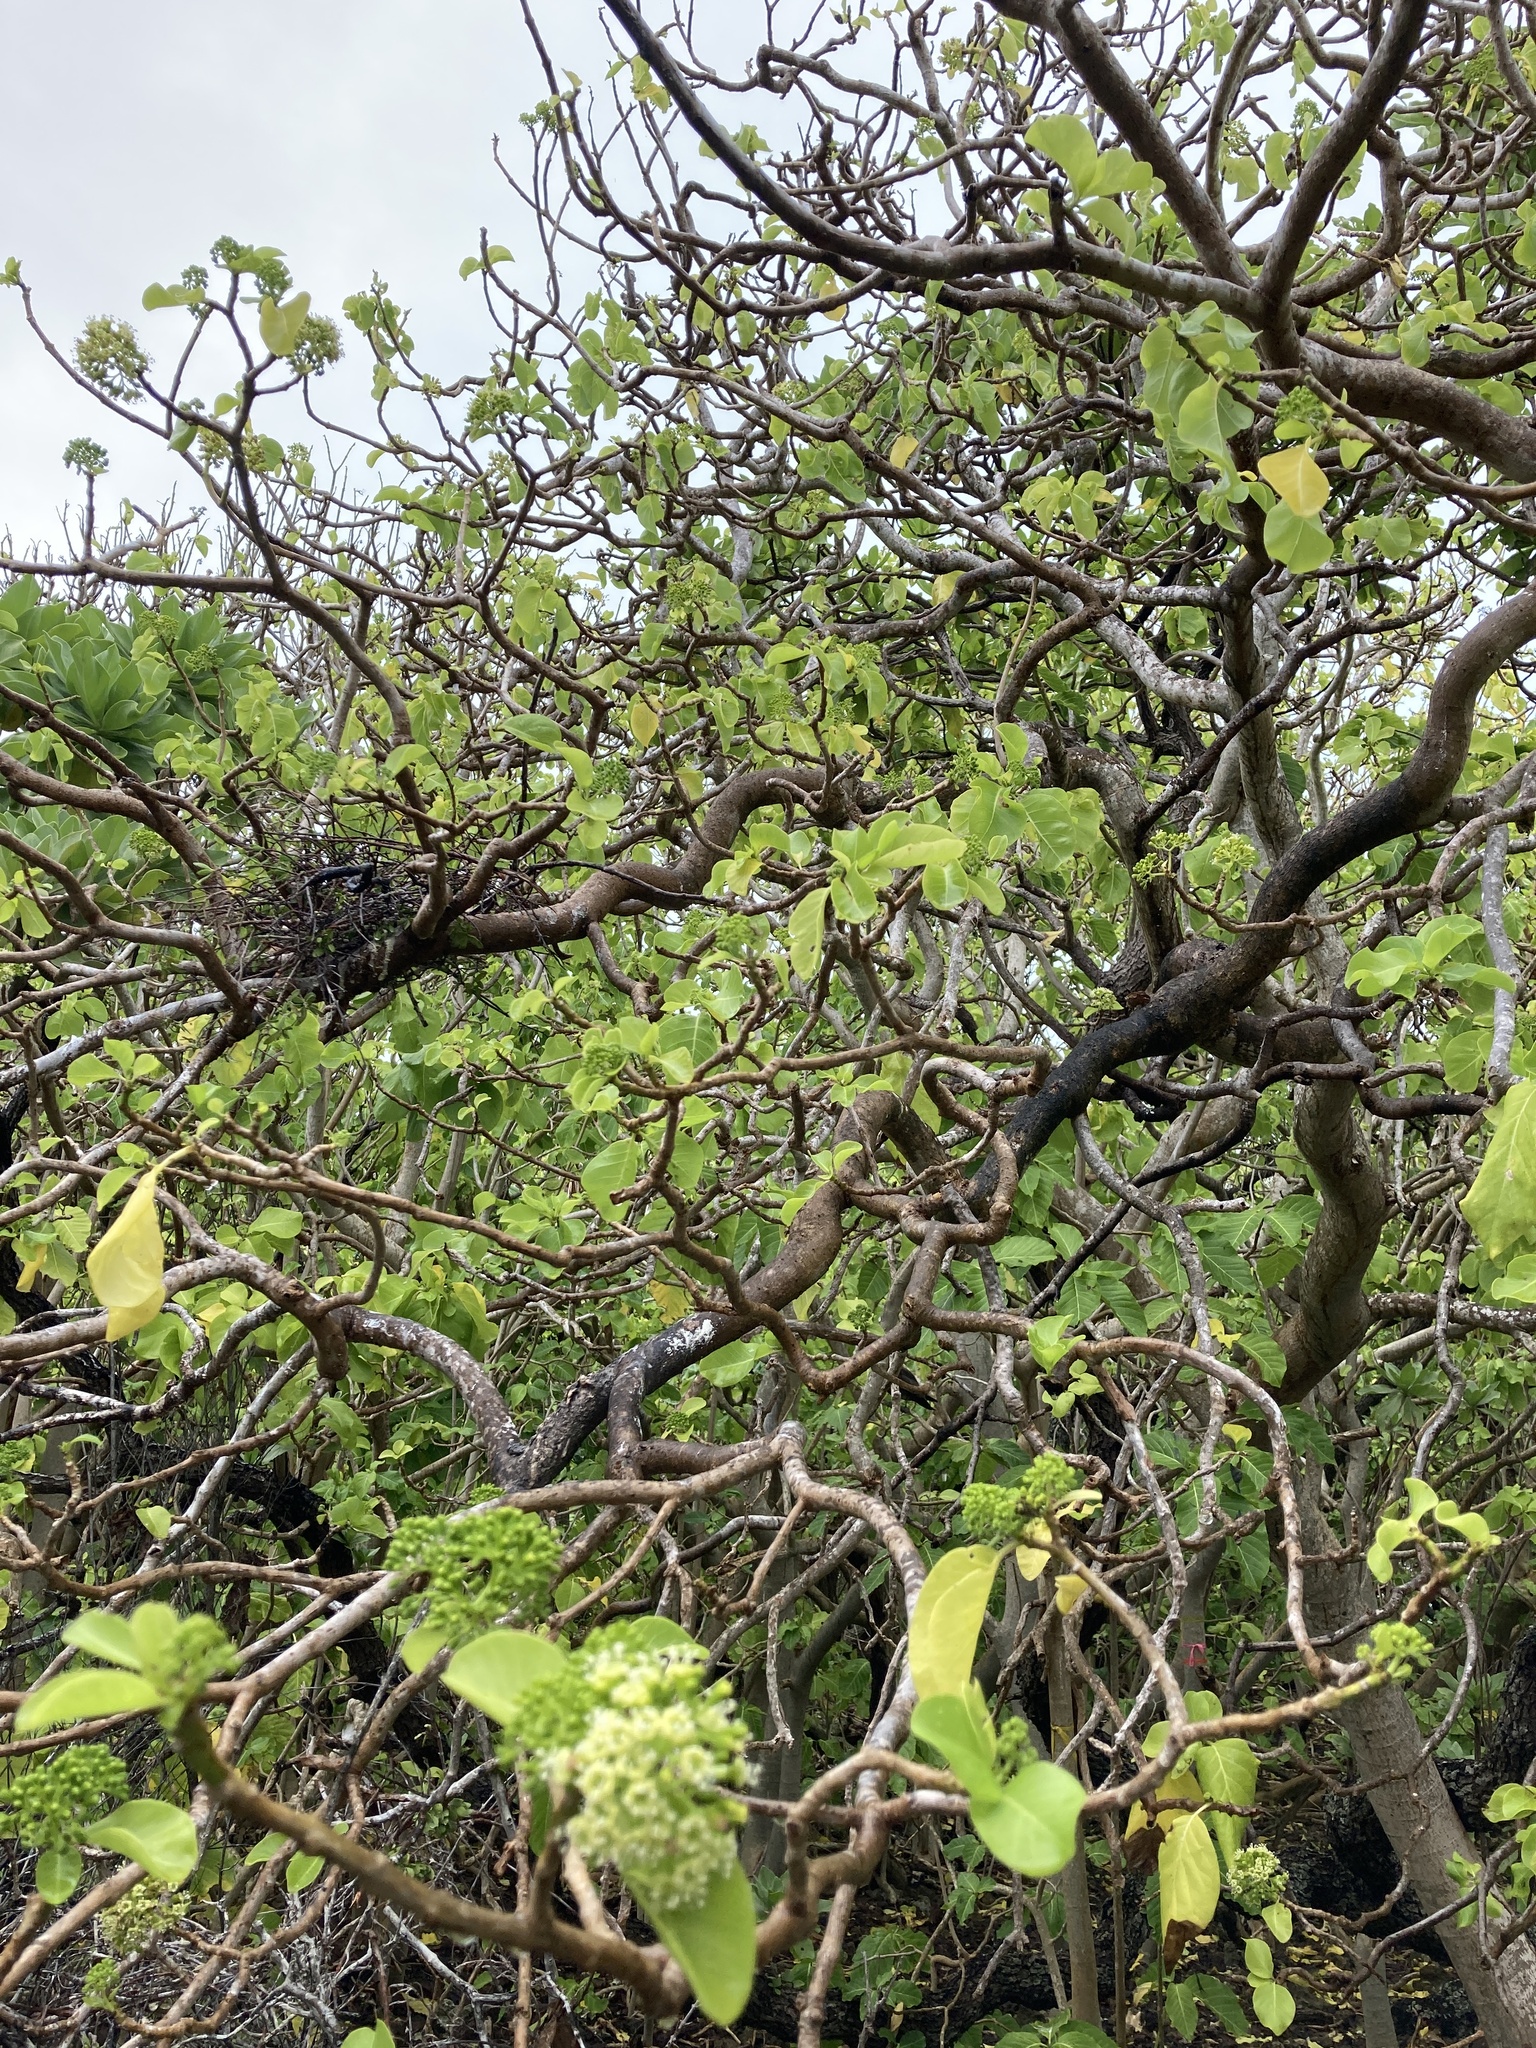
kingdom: Plantae
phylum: Tracheophyta
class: Magnoliopsida
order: Caryophyllales
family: Nyctaginaceae
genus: Ceodes
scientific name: Ceodes
